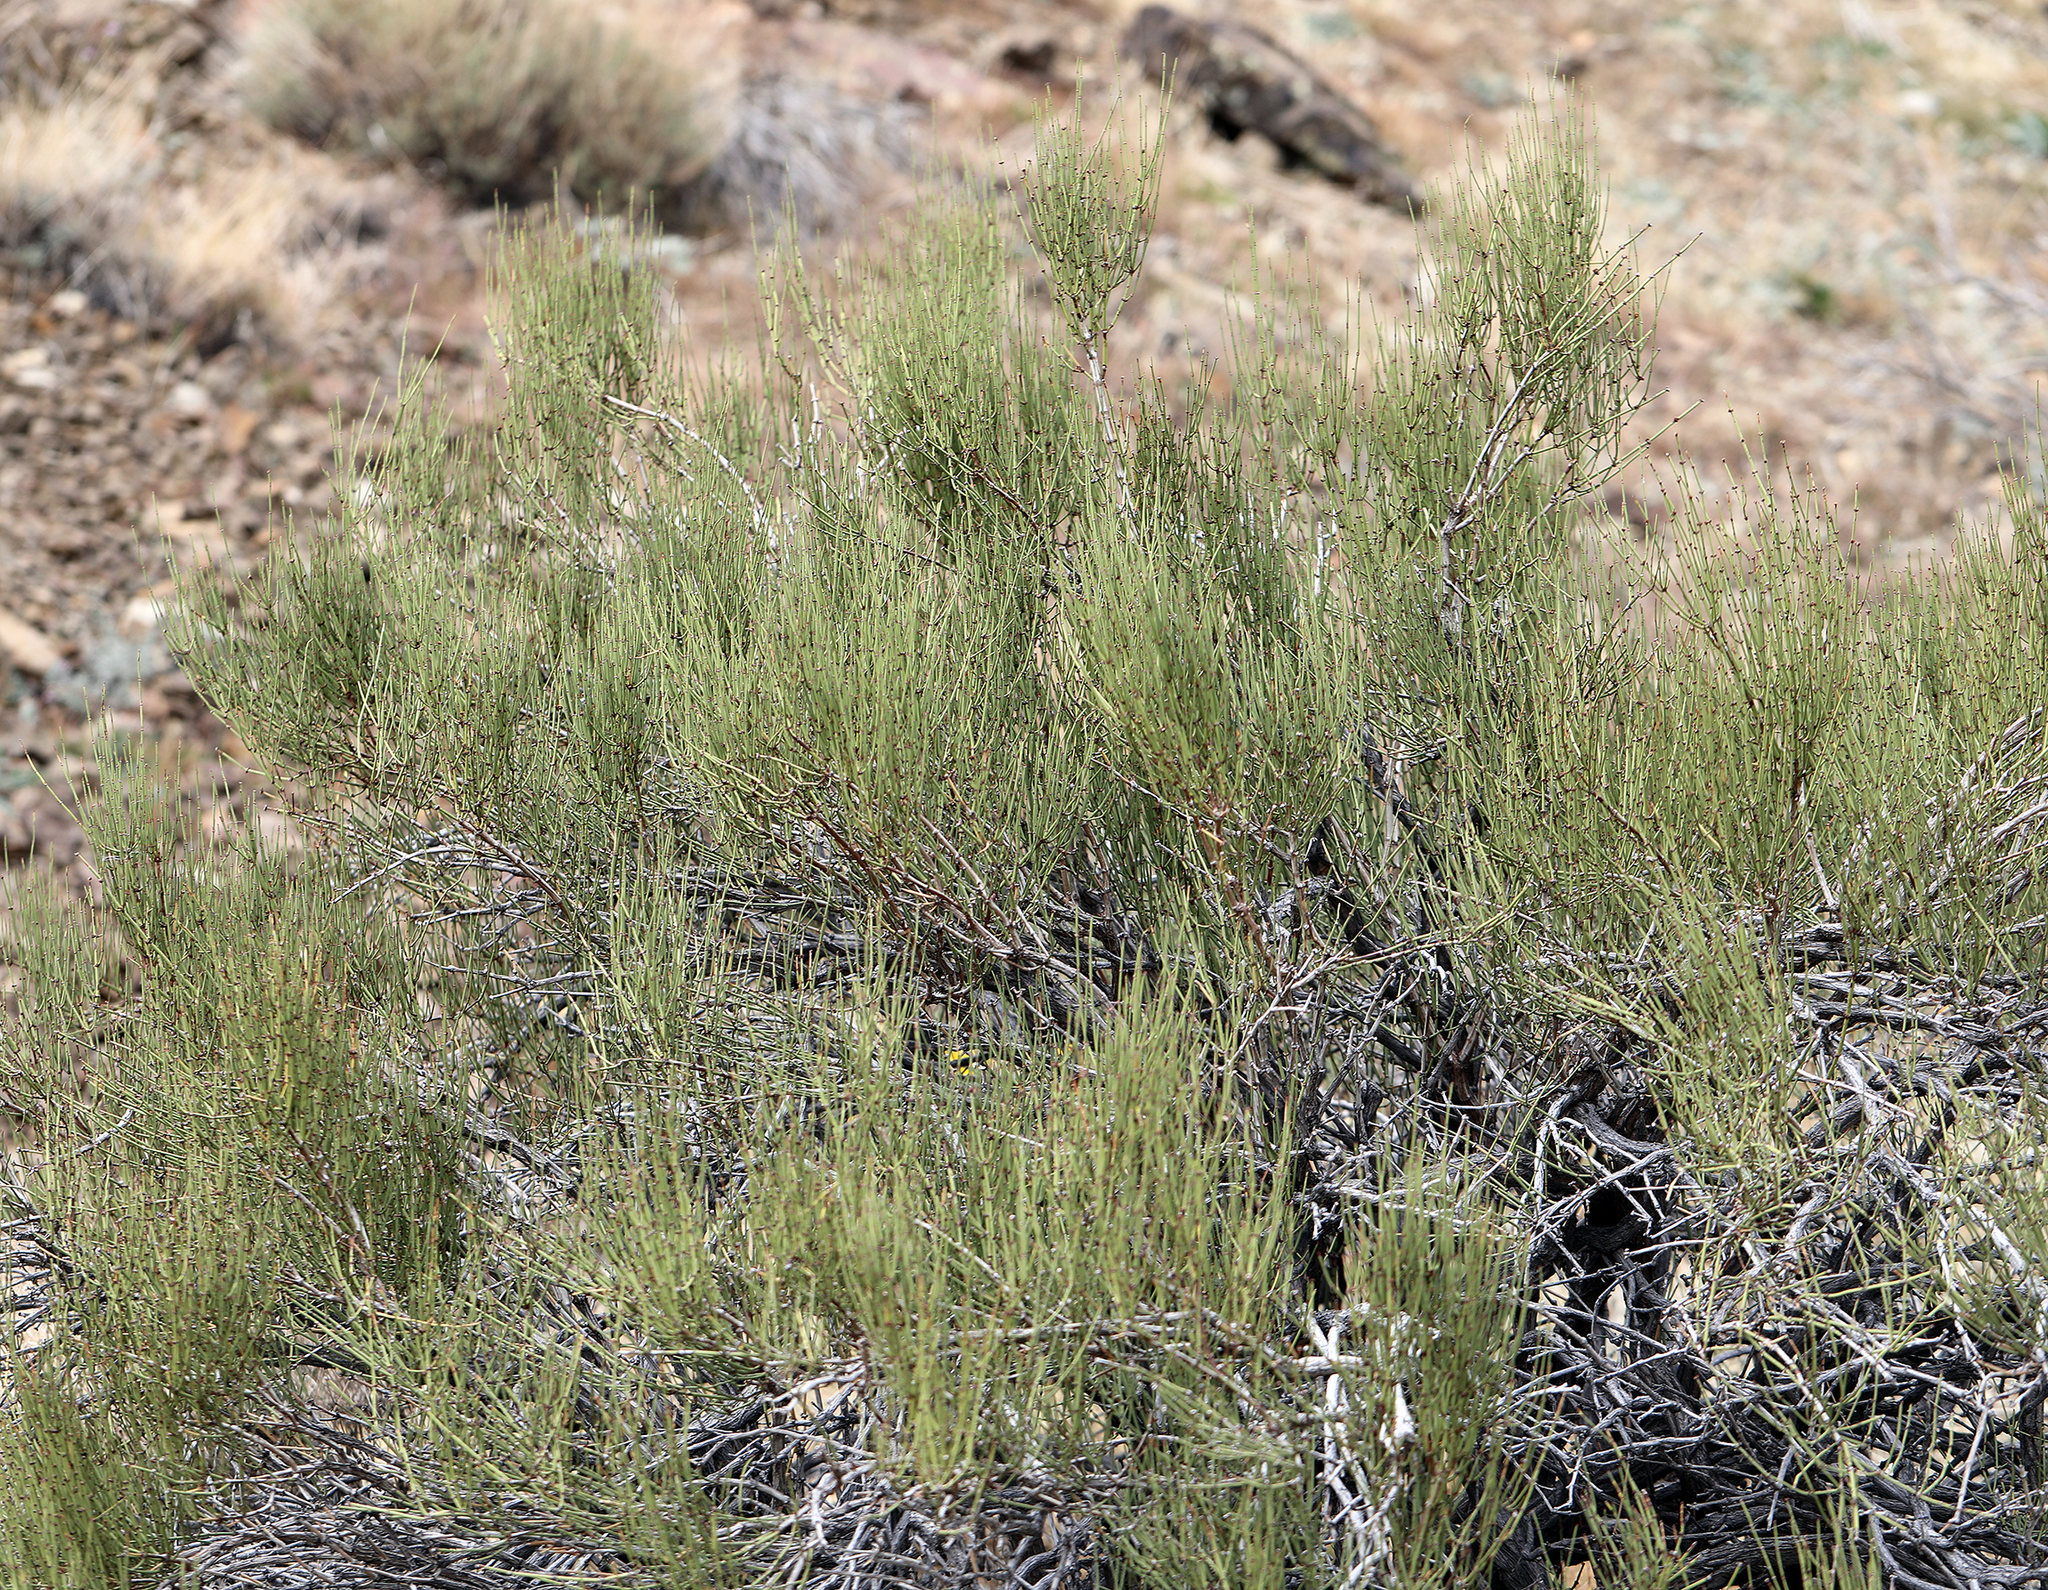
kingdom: Plantae
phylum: Tracheophyta
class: Gnetopsida
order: Ephedrales
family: Ephedraceae
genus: Ephedra
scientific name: Ephedra viridis
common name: Green ephedra
